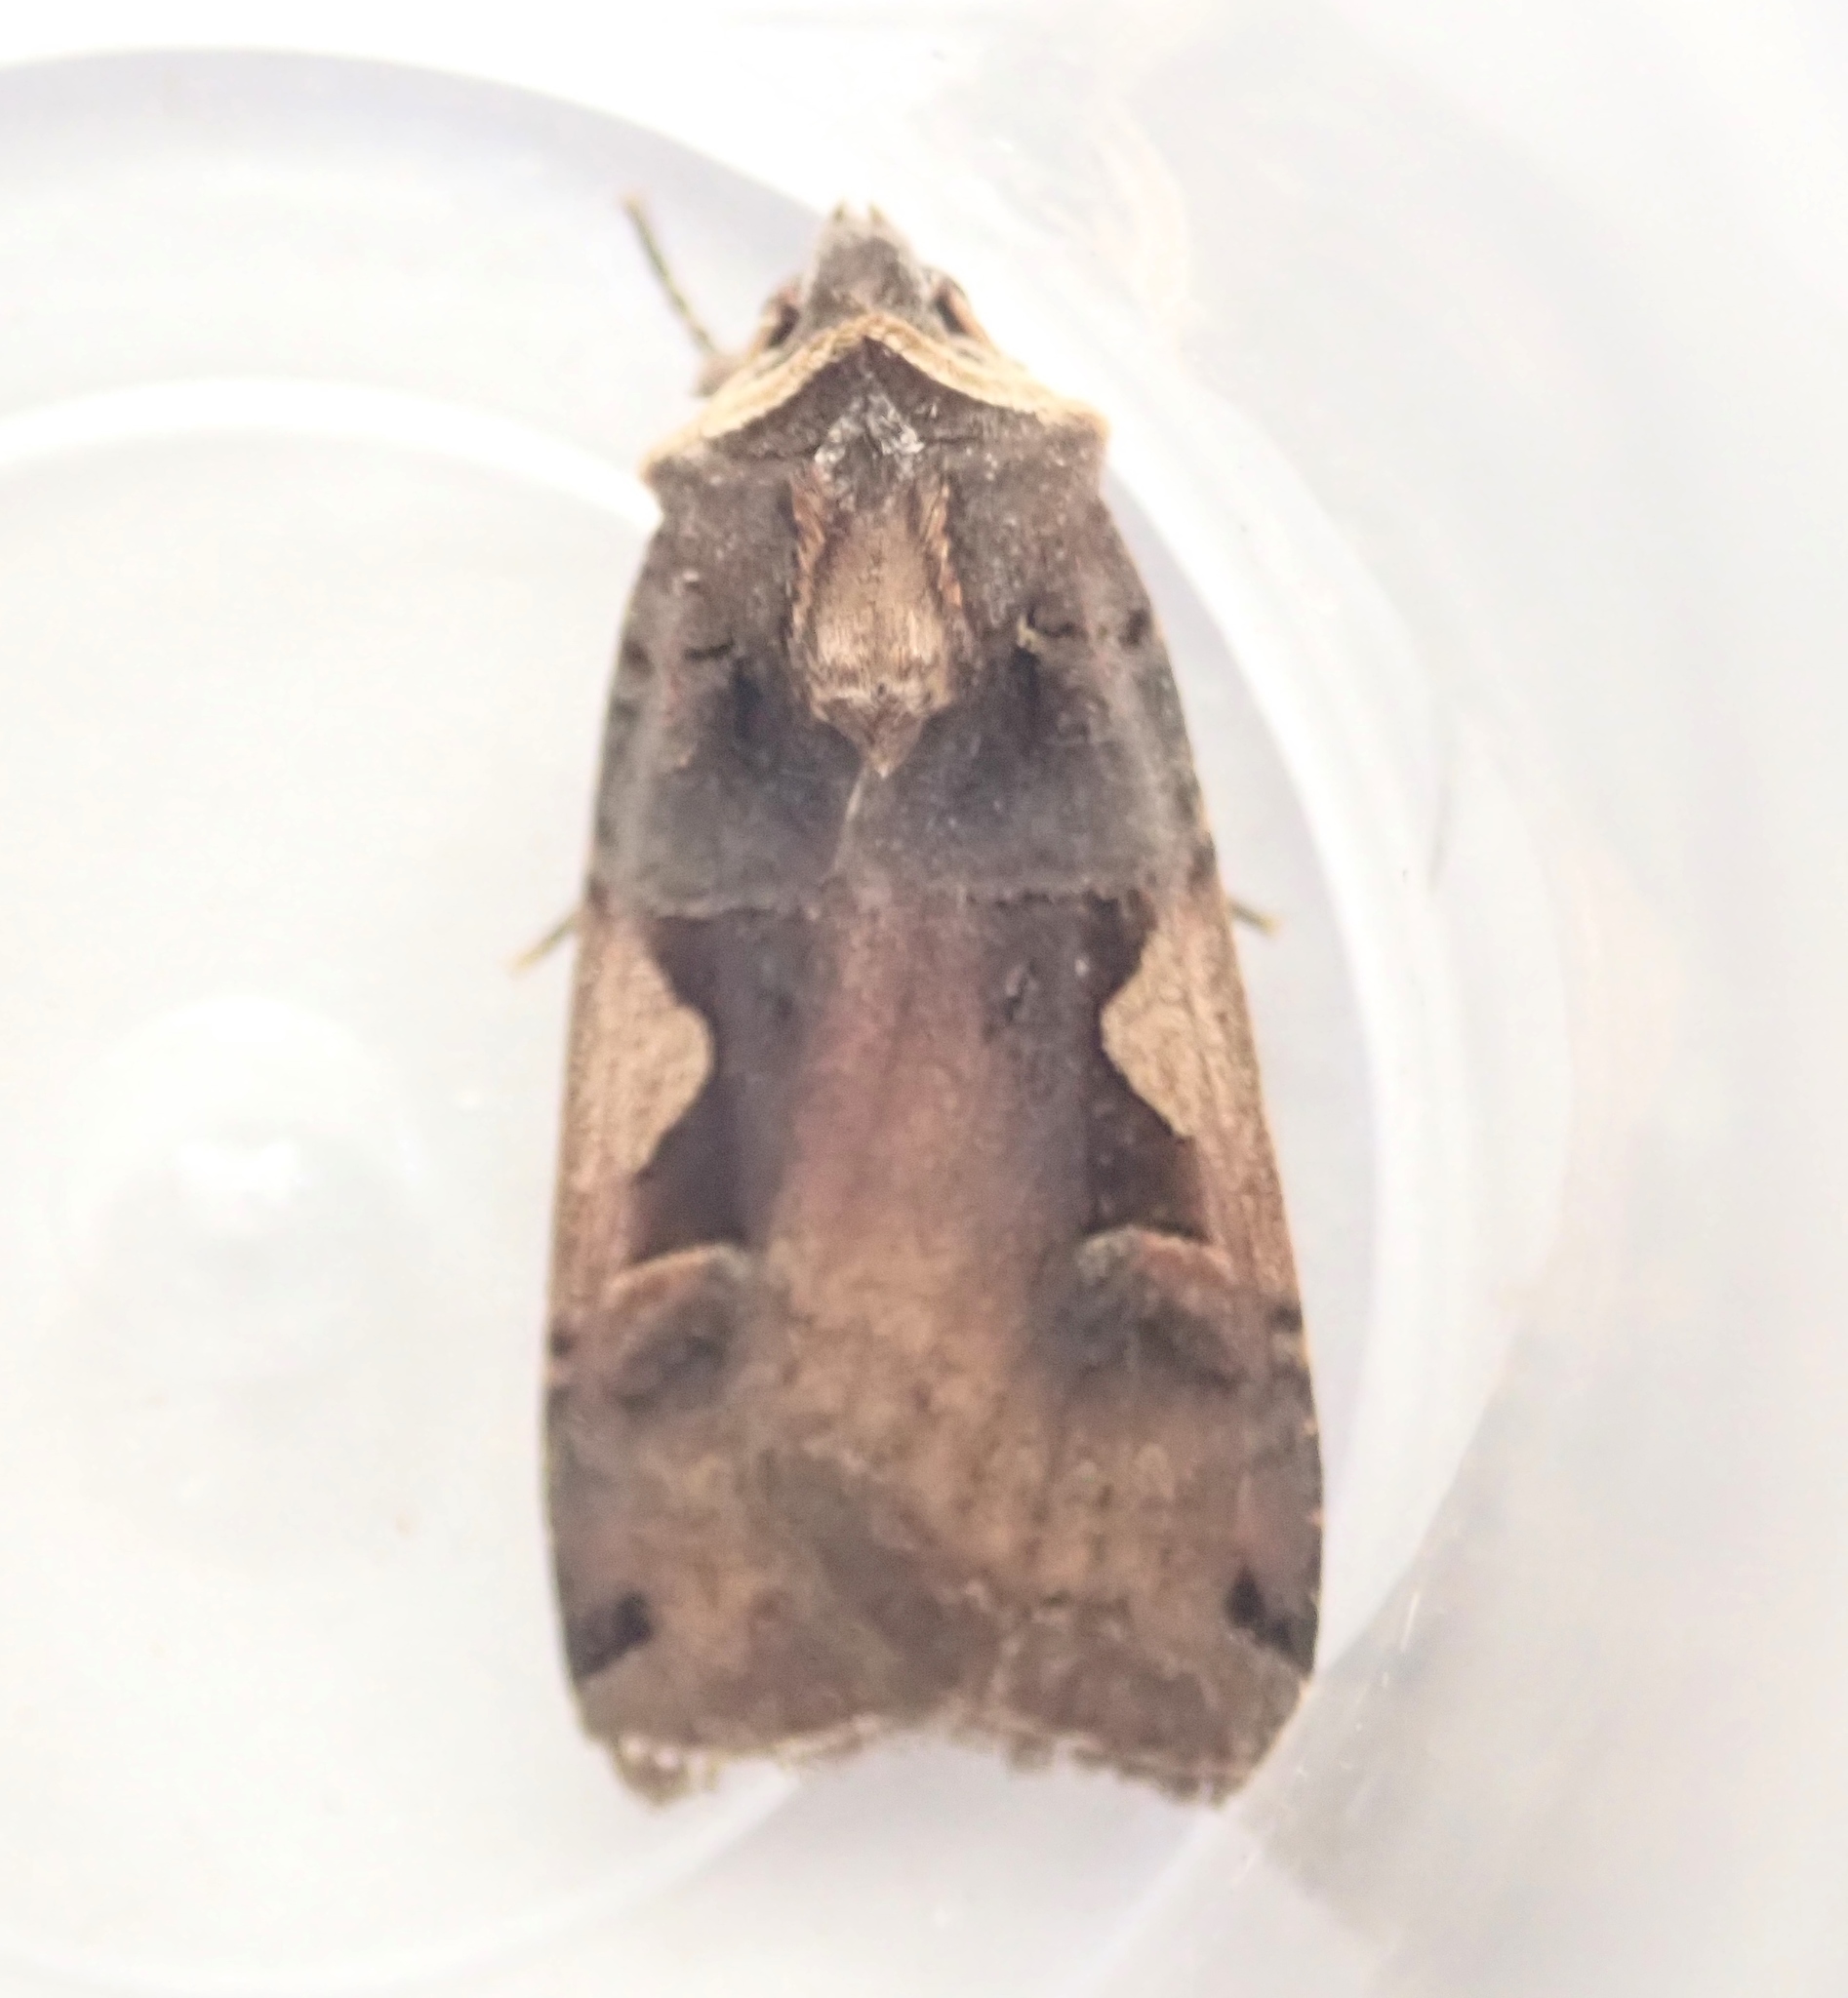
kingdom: Animalia
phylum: Arthropoda
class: Insecta
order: Lepidoptera
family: Noctuidae
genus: Xestia
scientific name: Xestia c-nigrum
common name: Setaceous hebrew character
